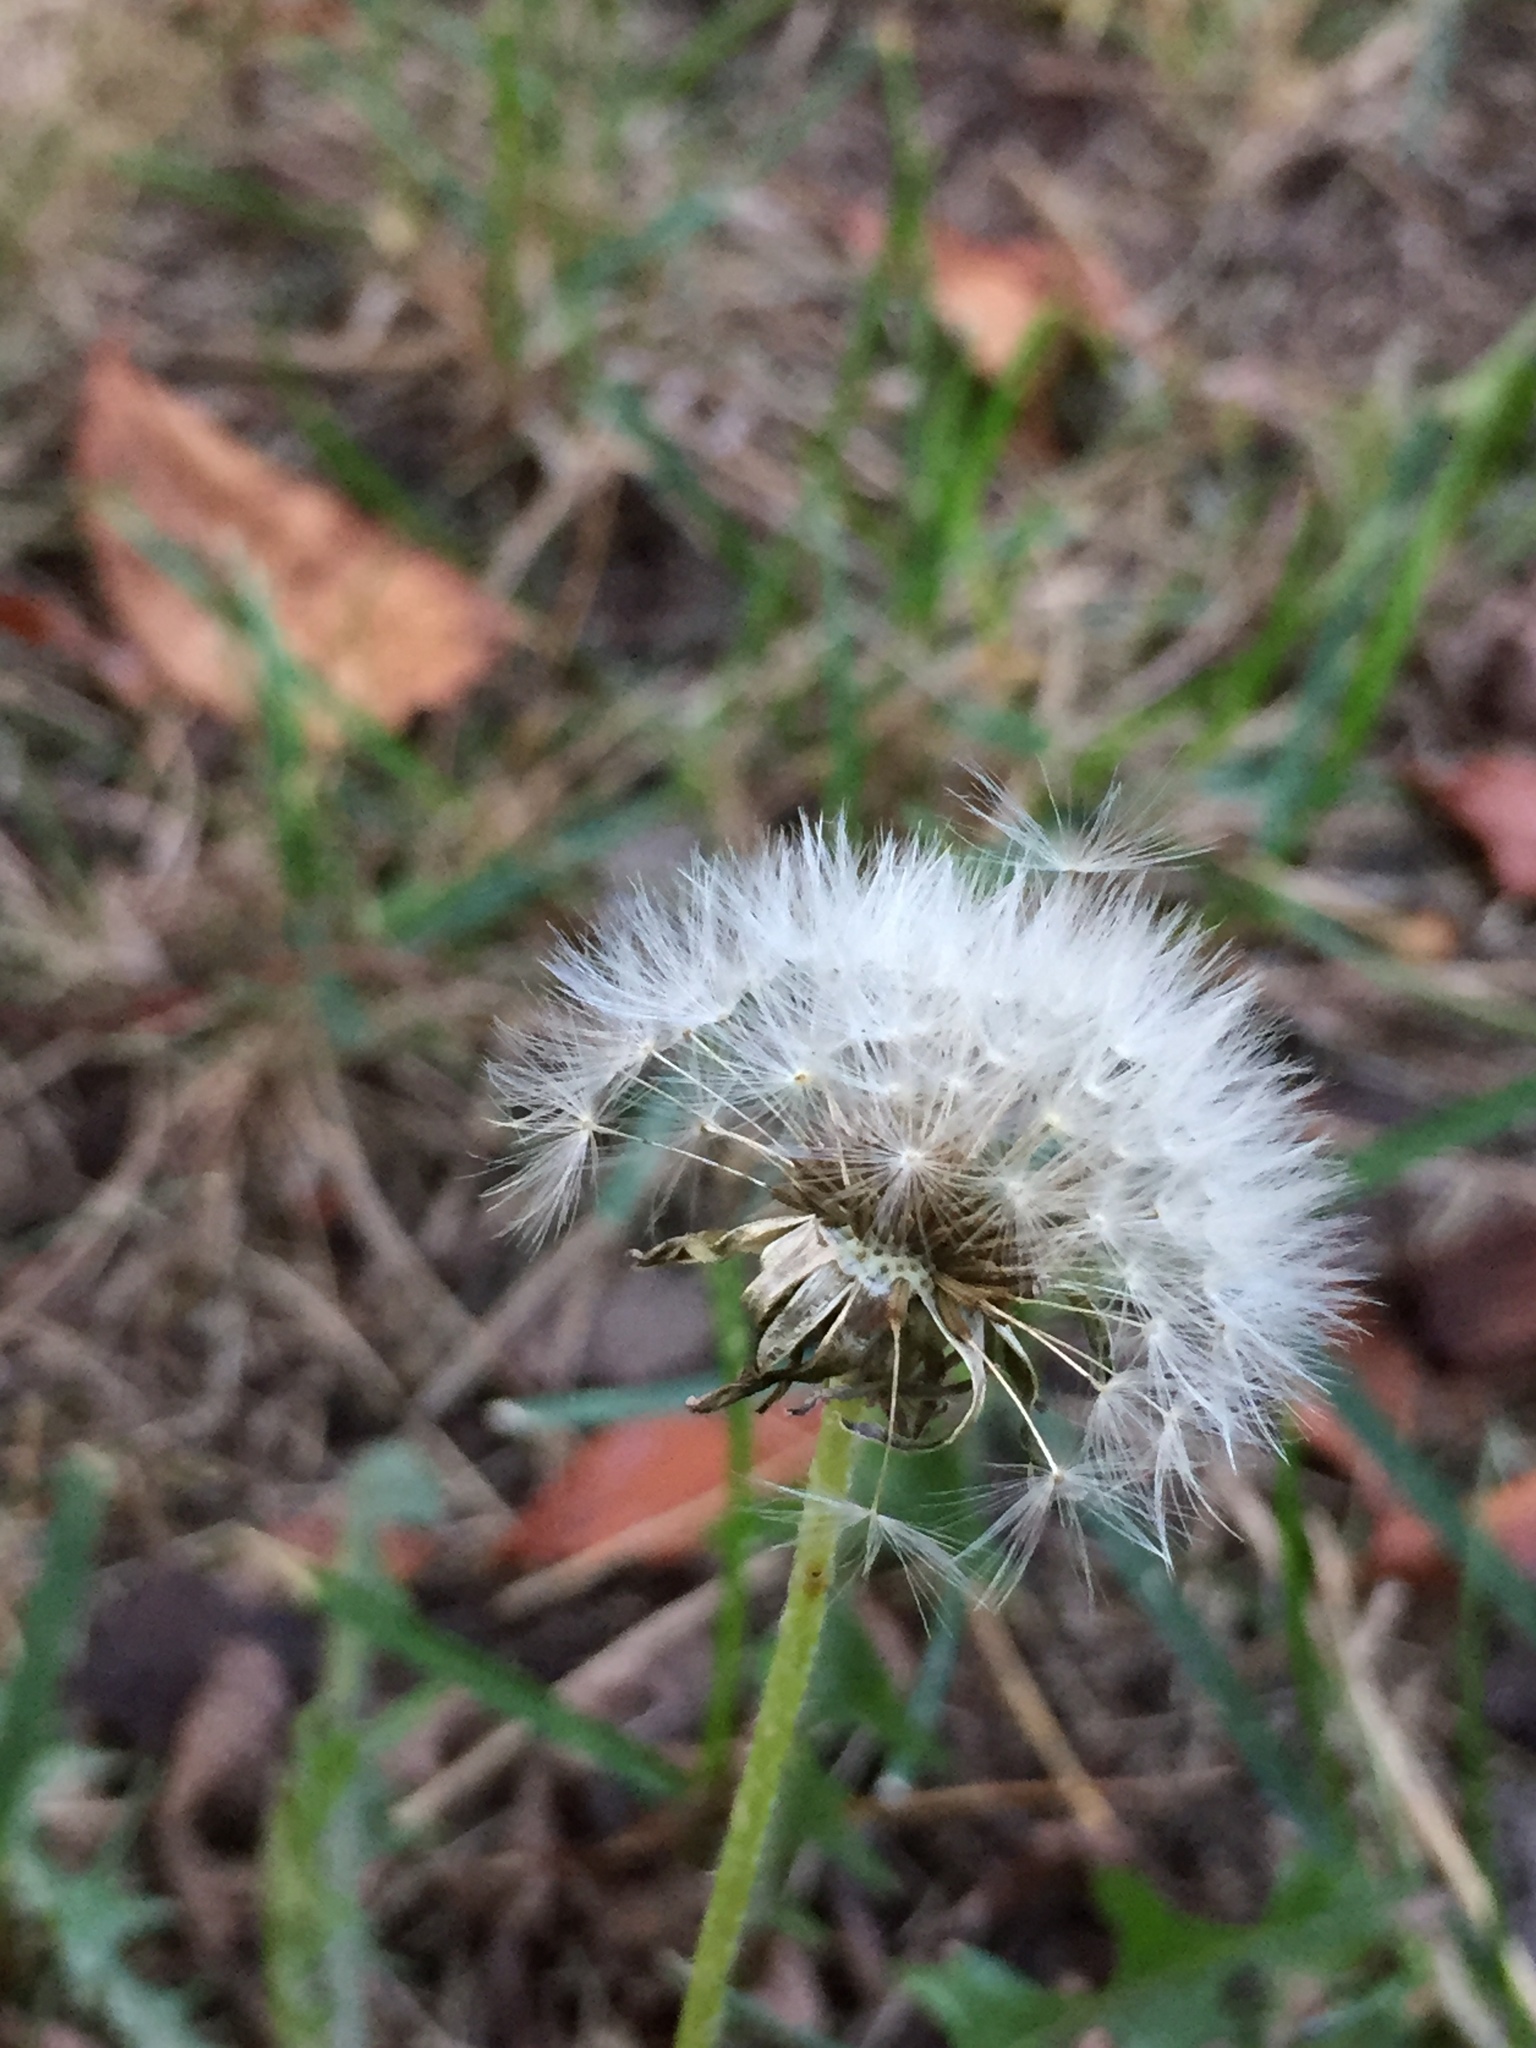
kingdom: Plantae
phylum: Tracheophyta
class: Magnoliopsida
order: Asterales
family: Asteraceae
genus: Taraxacum
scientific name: Taraxacum officinale
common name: Common dandelion
